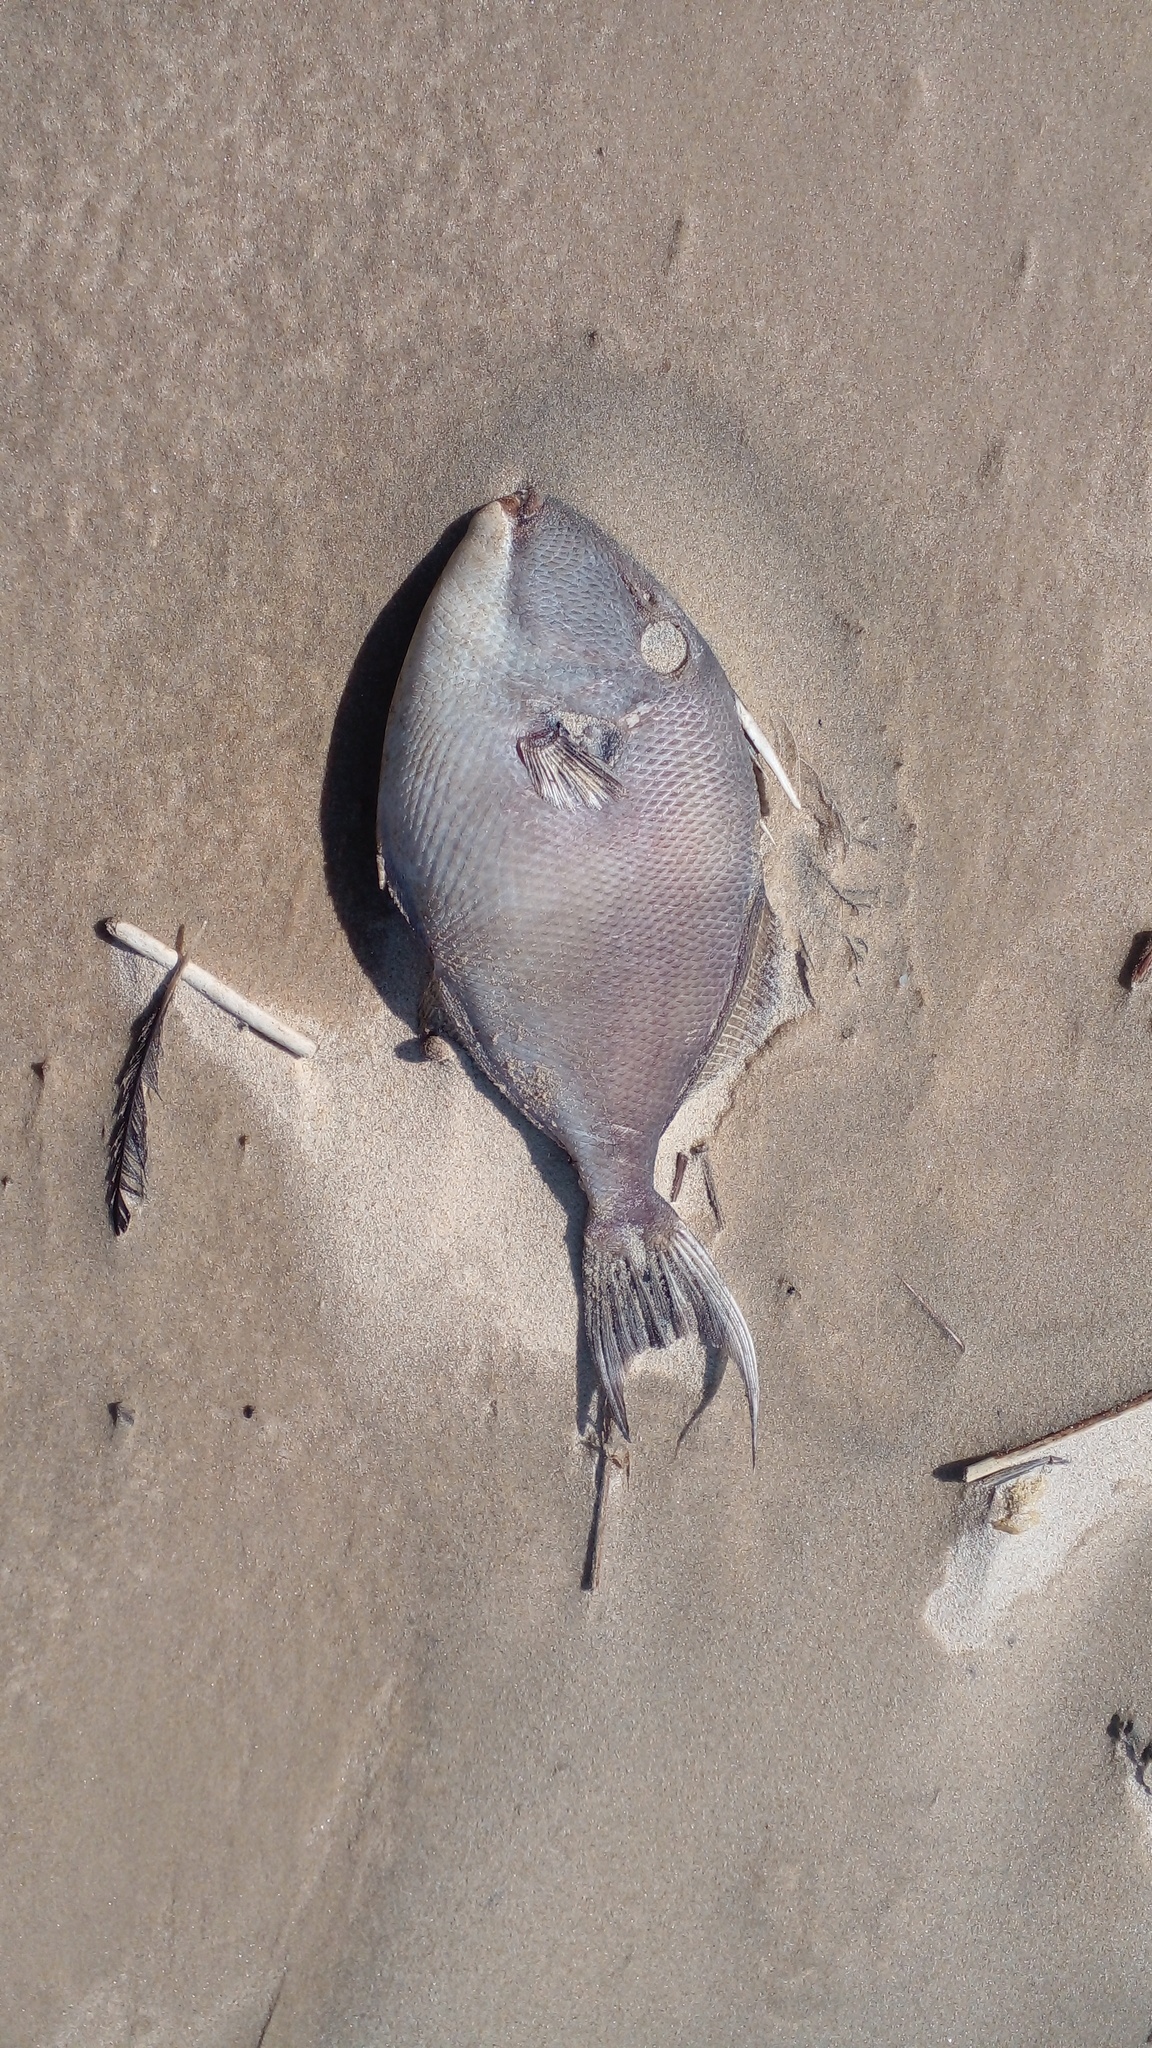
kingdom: Animalia
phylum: Chordata
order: Tetraodontiformes
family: Balistidae
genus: Balistes
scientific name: Balistes capriscus
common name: Grey triggerfish
